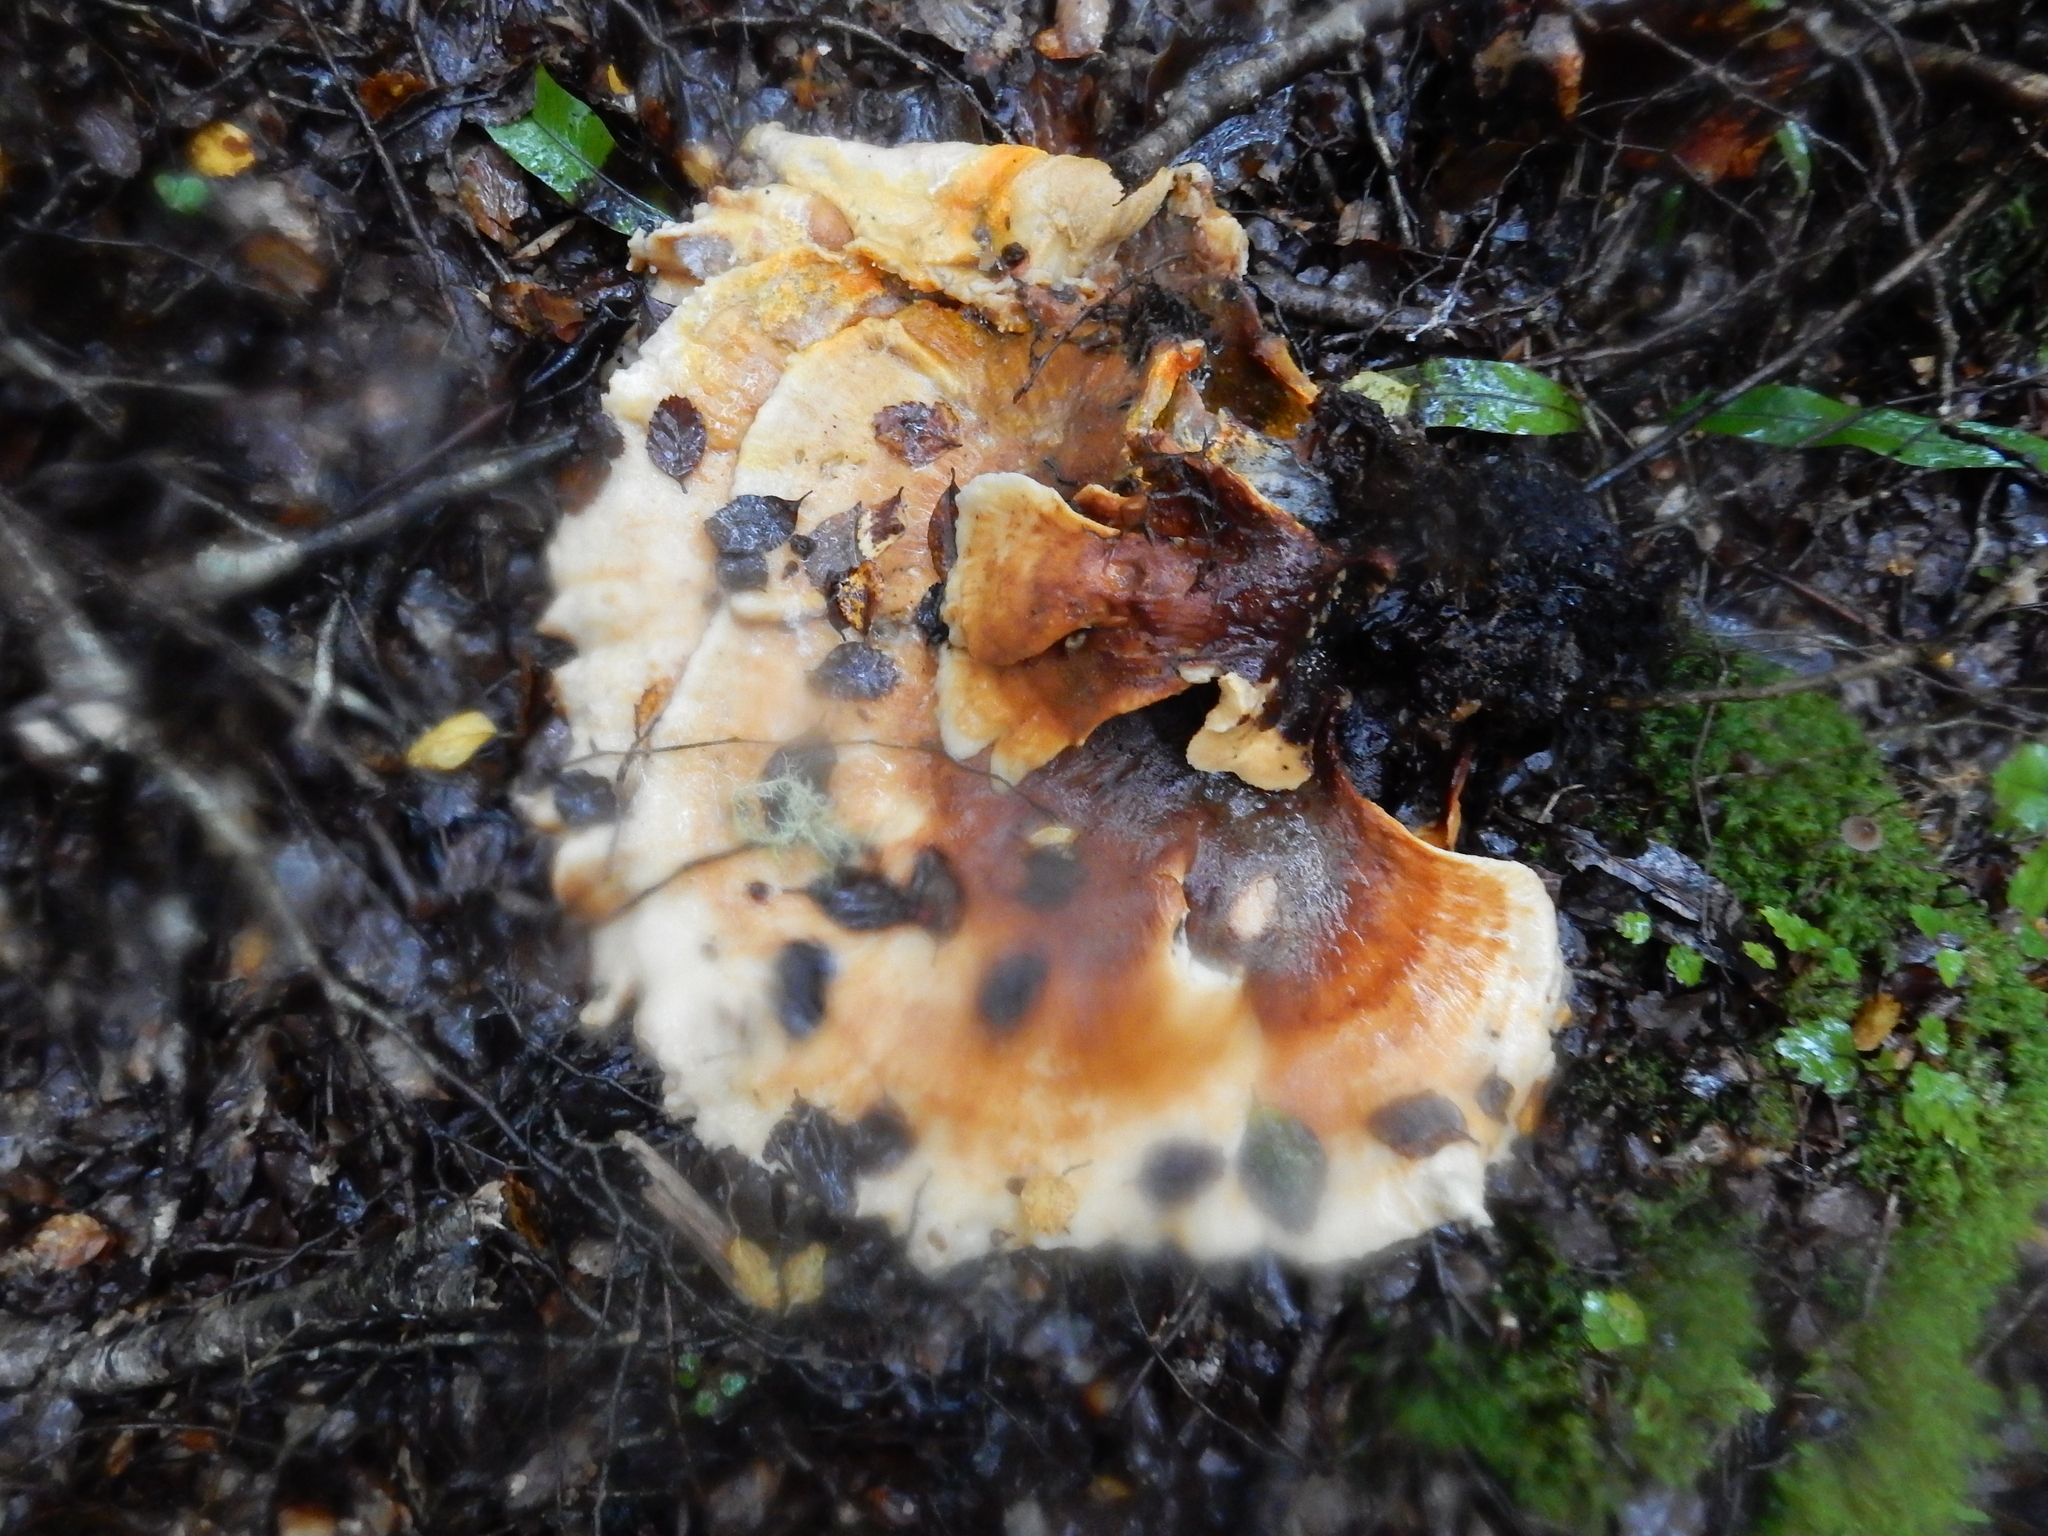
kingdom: Fungi
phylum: Basidiomycota
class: Agaricomycetes
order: Russulales
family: Bondarzewiaceae
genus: Bondarzewia
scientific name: Bondarzewia kirkii
